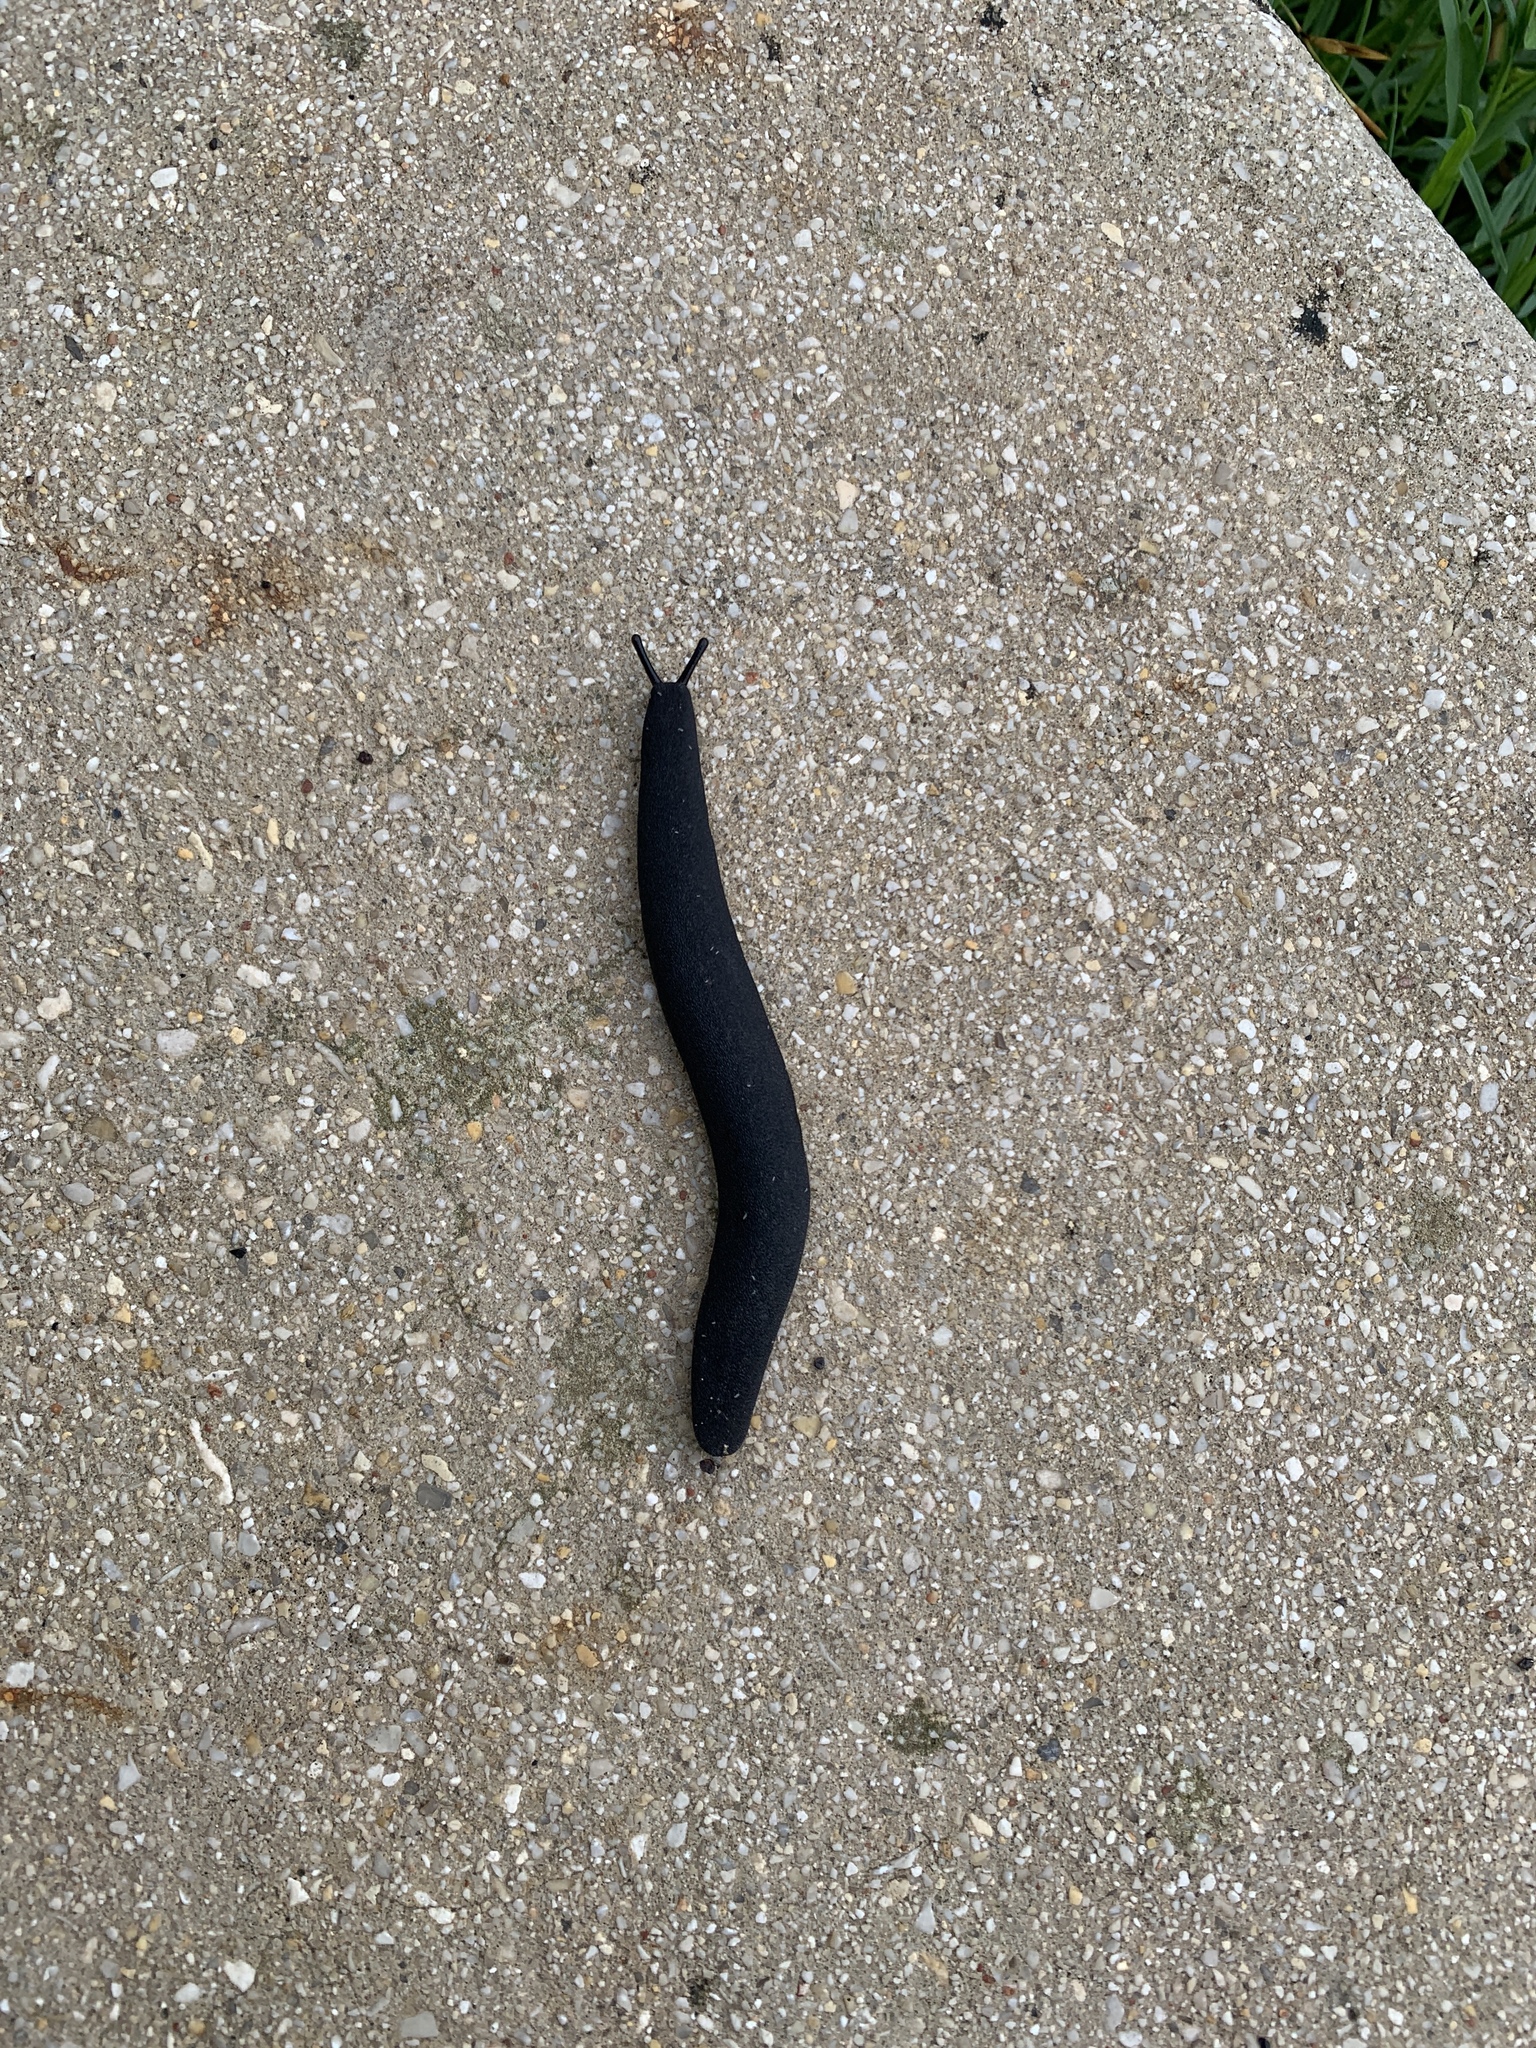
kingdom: Animalia
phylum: Mollusca
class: Gastropoda
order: Systellommatophora
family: Veronicellidae
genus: Belocaulus
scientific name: Belocaulus angustipes
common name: Black velvet leatherleaf slug
